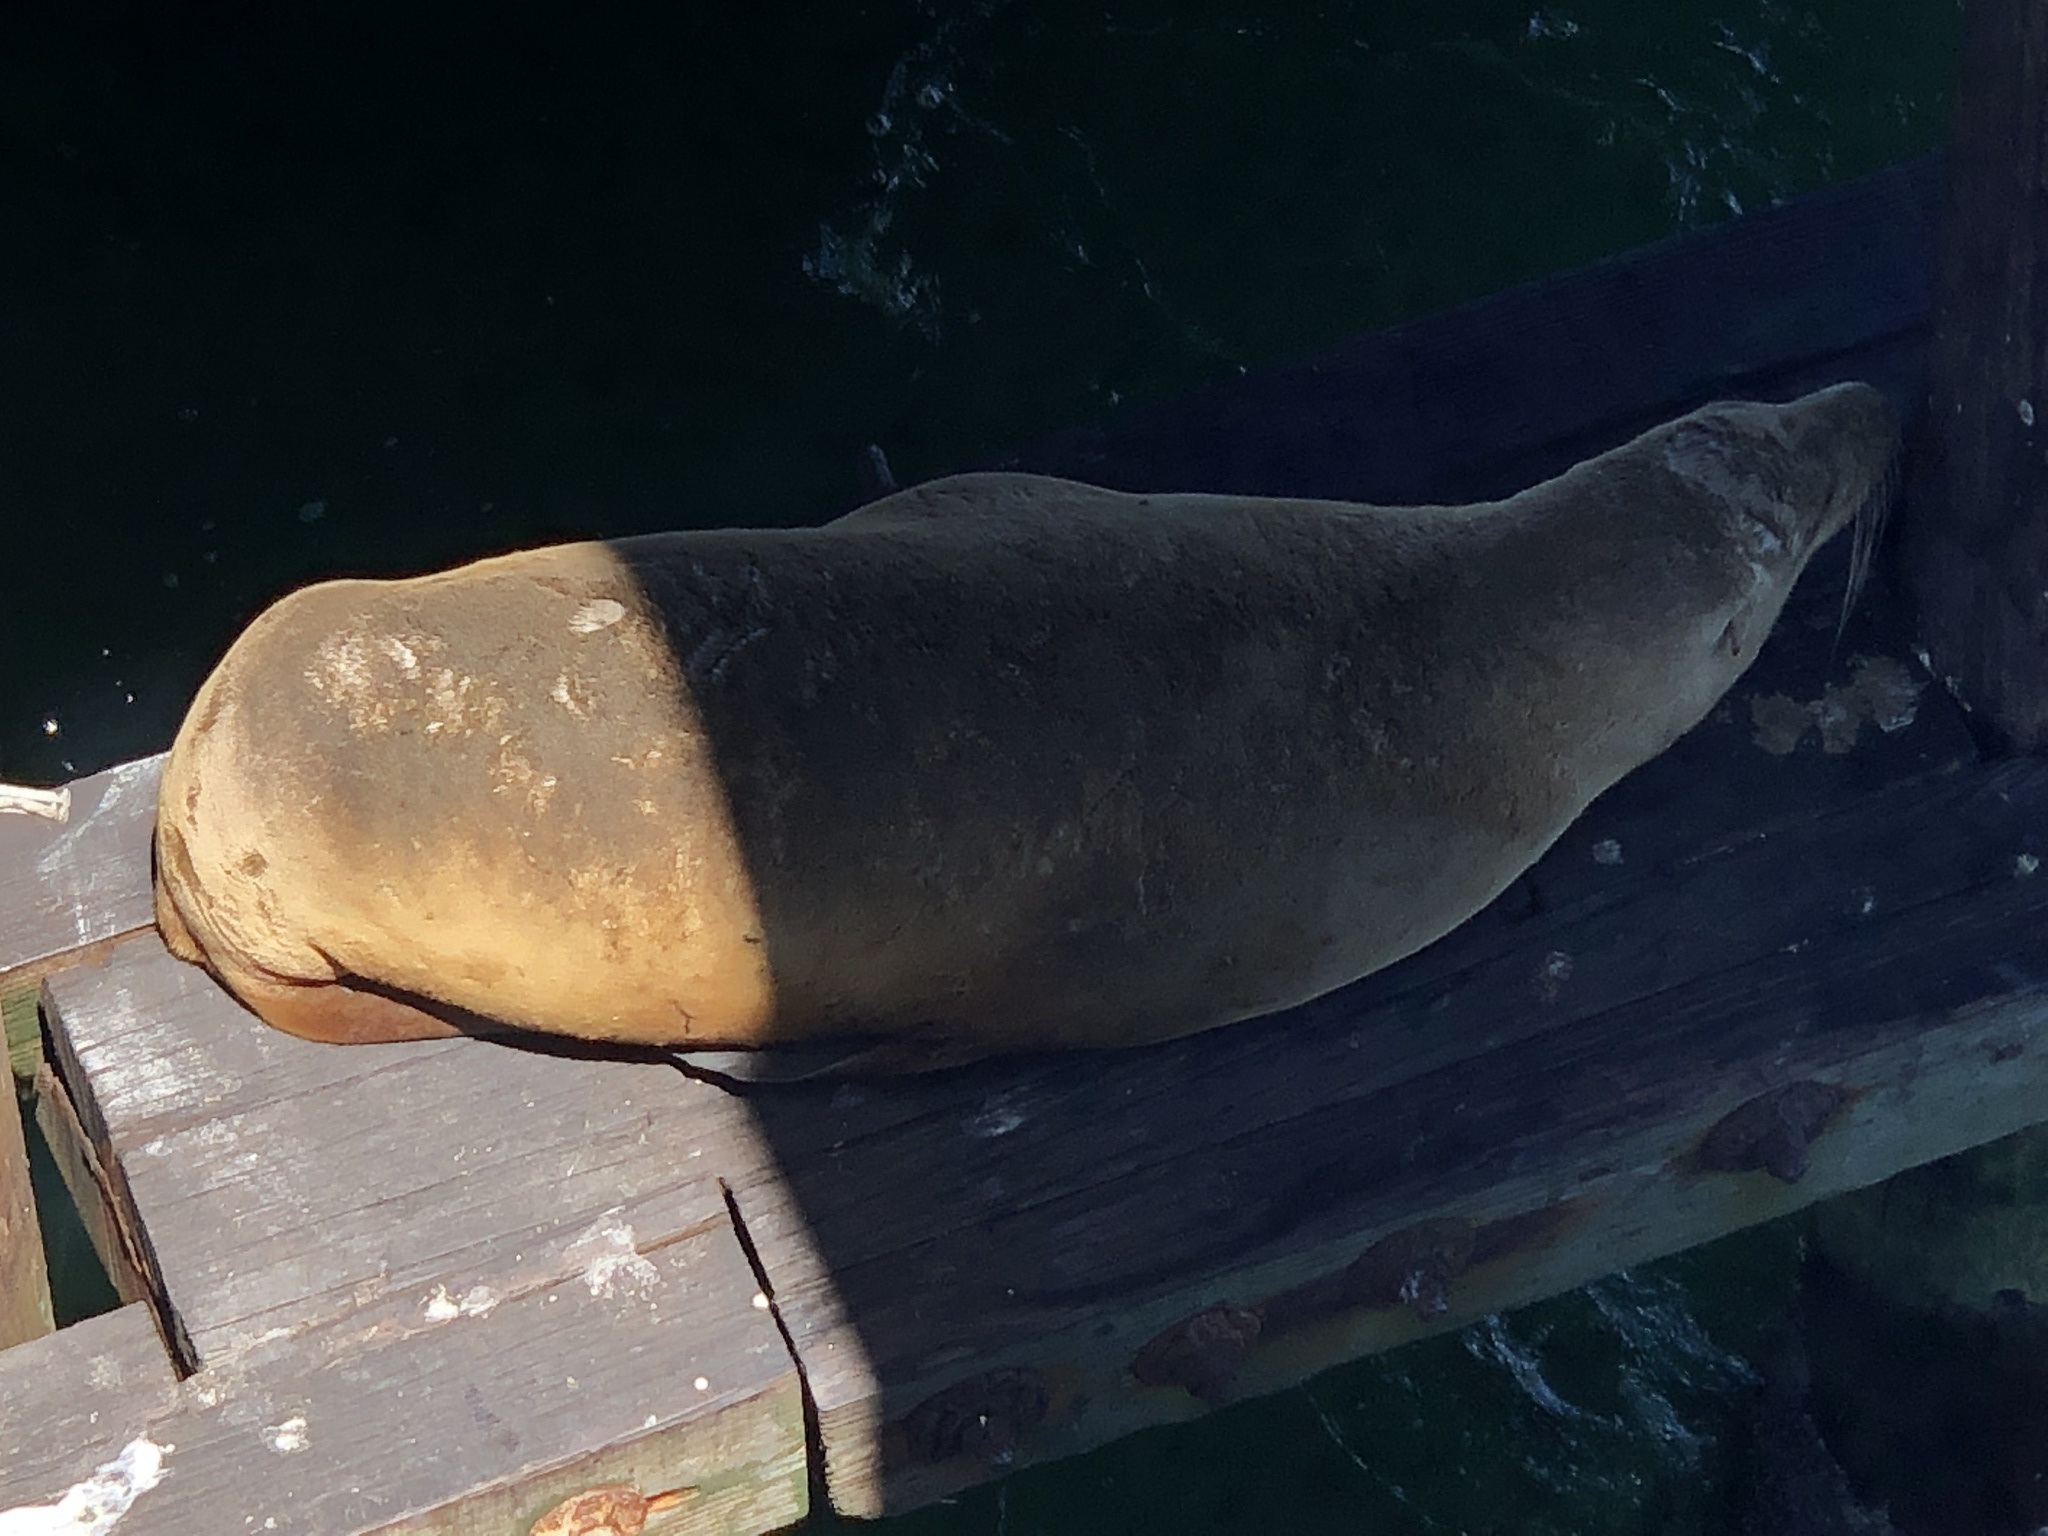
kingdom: Animalia
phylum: Chordata
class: Mammalia
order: Carnivora
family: Otariidae
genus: Zalophus
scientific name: Zalophus californianus
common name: California sea lion
